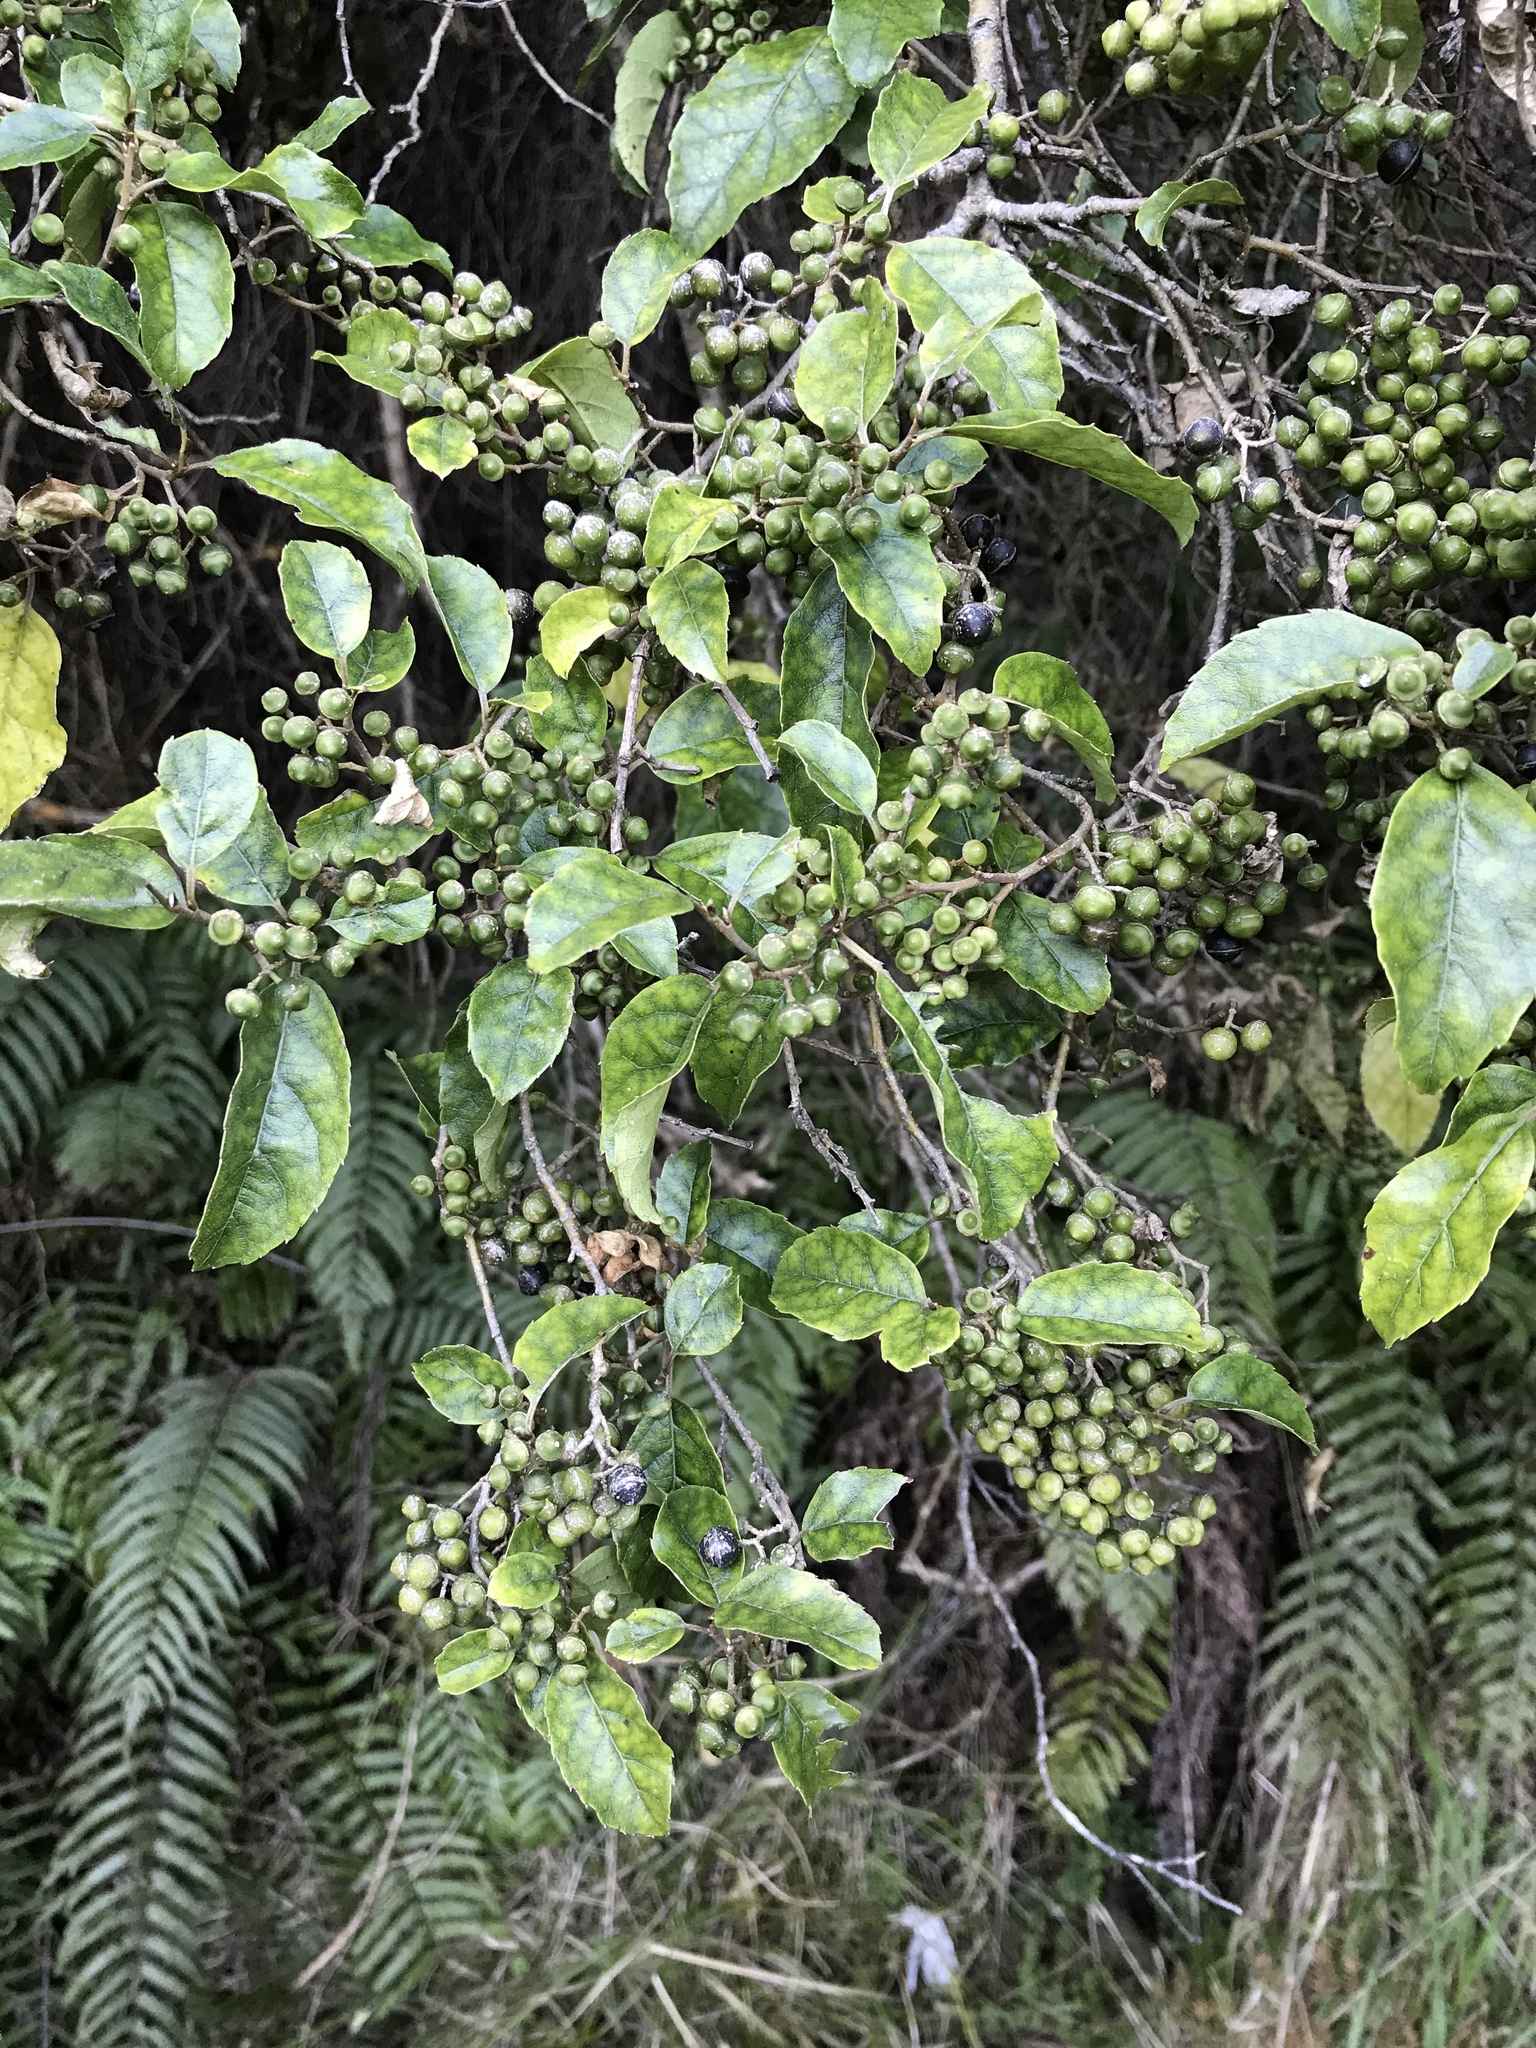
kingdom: Plantae
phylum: Tracheophyta
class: Magnoliopsida
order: Asterales
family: Rousseaceae
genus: Carpodetus
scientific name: Carpodetus serratus
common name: White mapau
